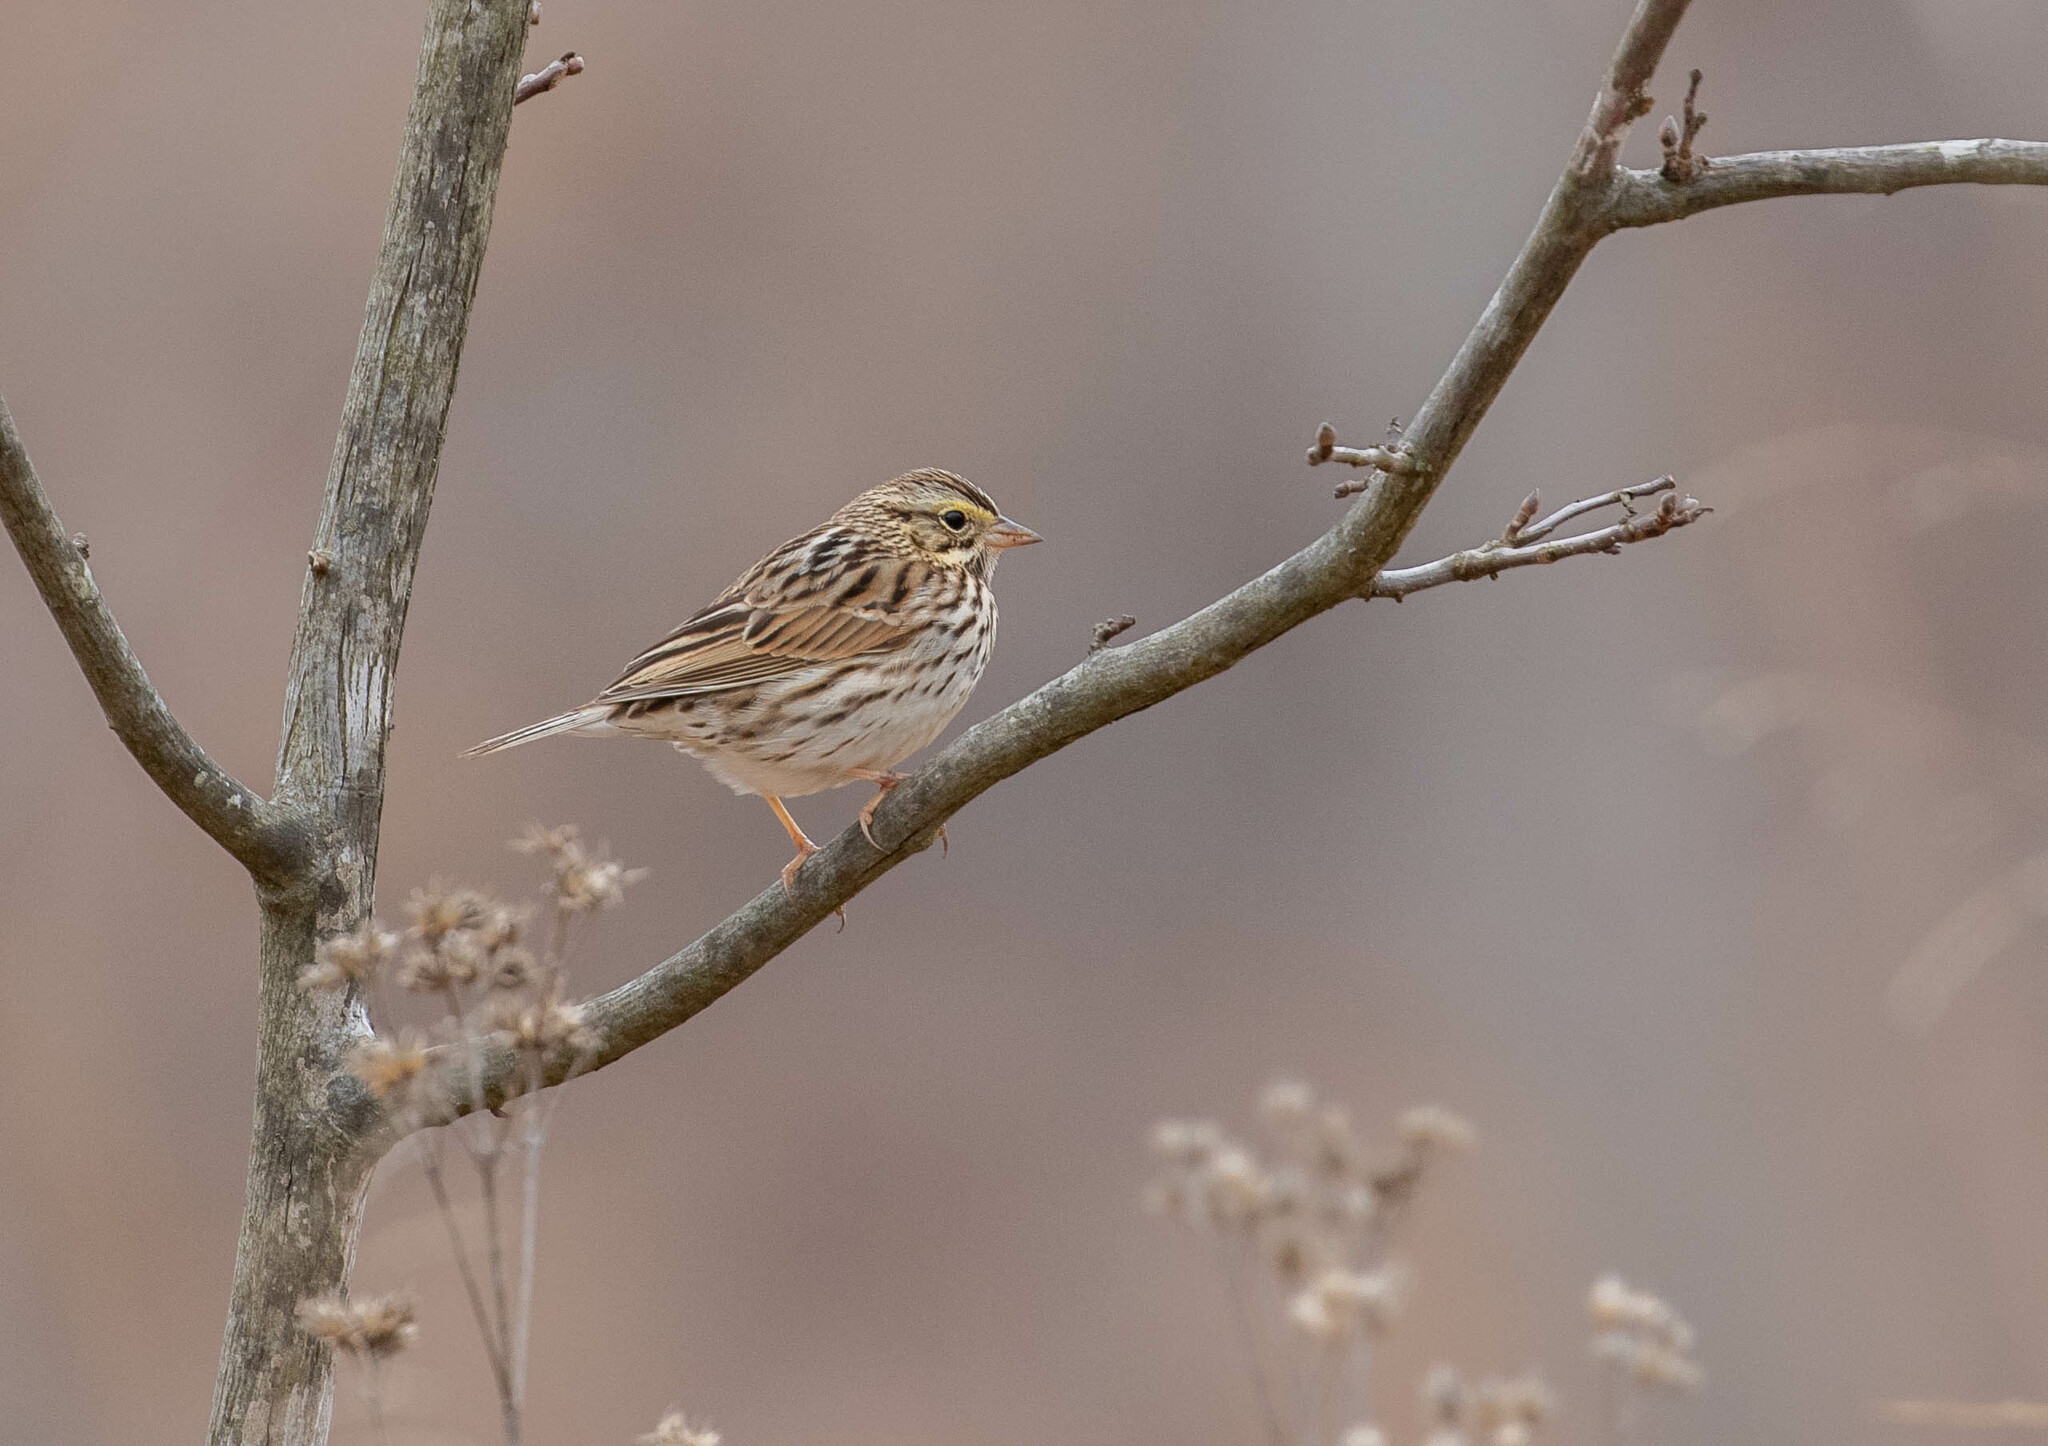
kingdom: Animalia
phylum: Chordata
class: Aves
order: Passeriformes
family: Passerellidae
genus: Passerculus
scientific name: Passerculus sandwichensis
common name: Savannah sparrow
